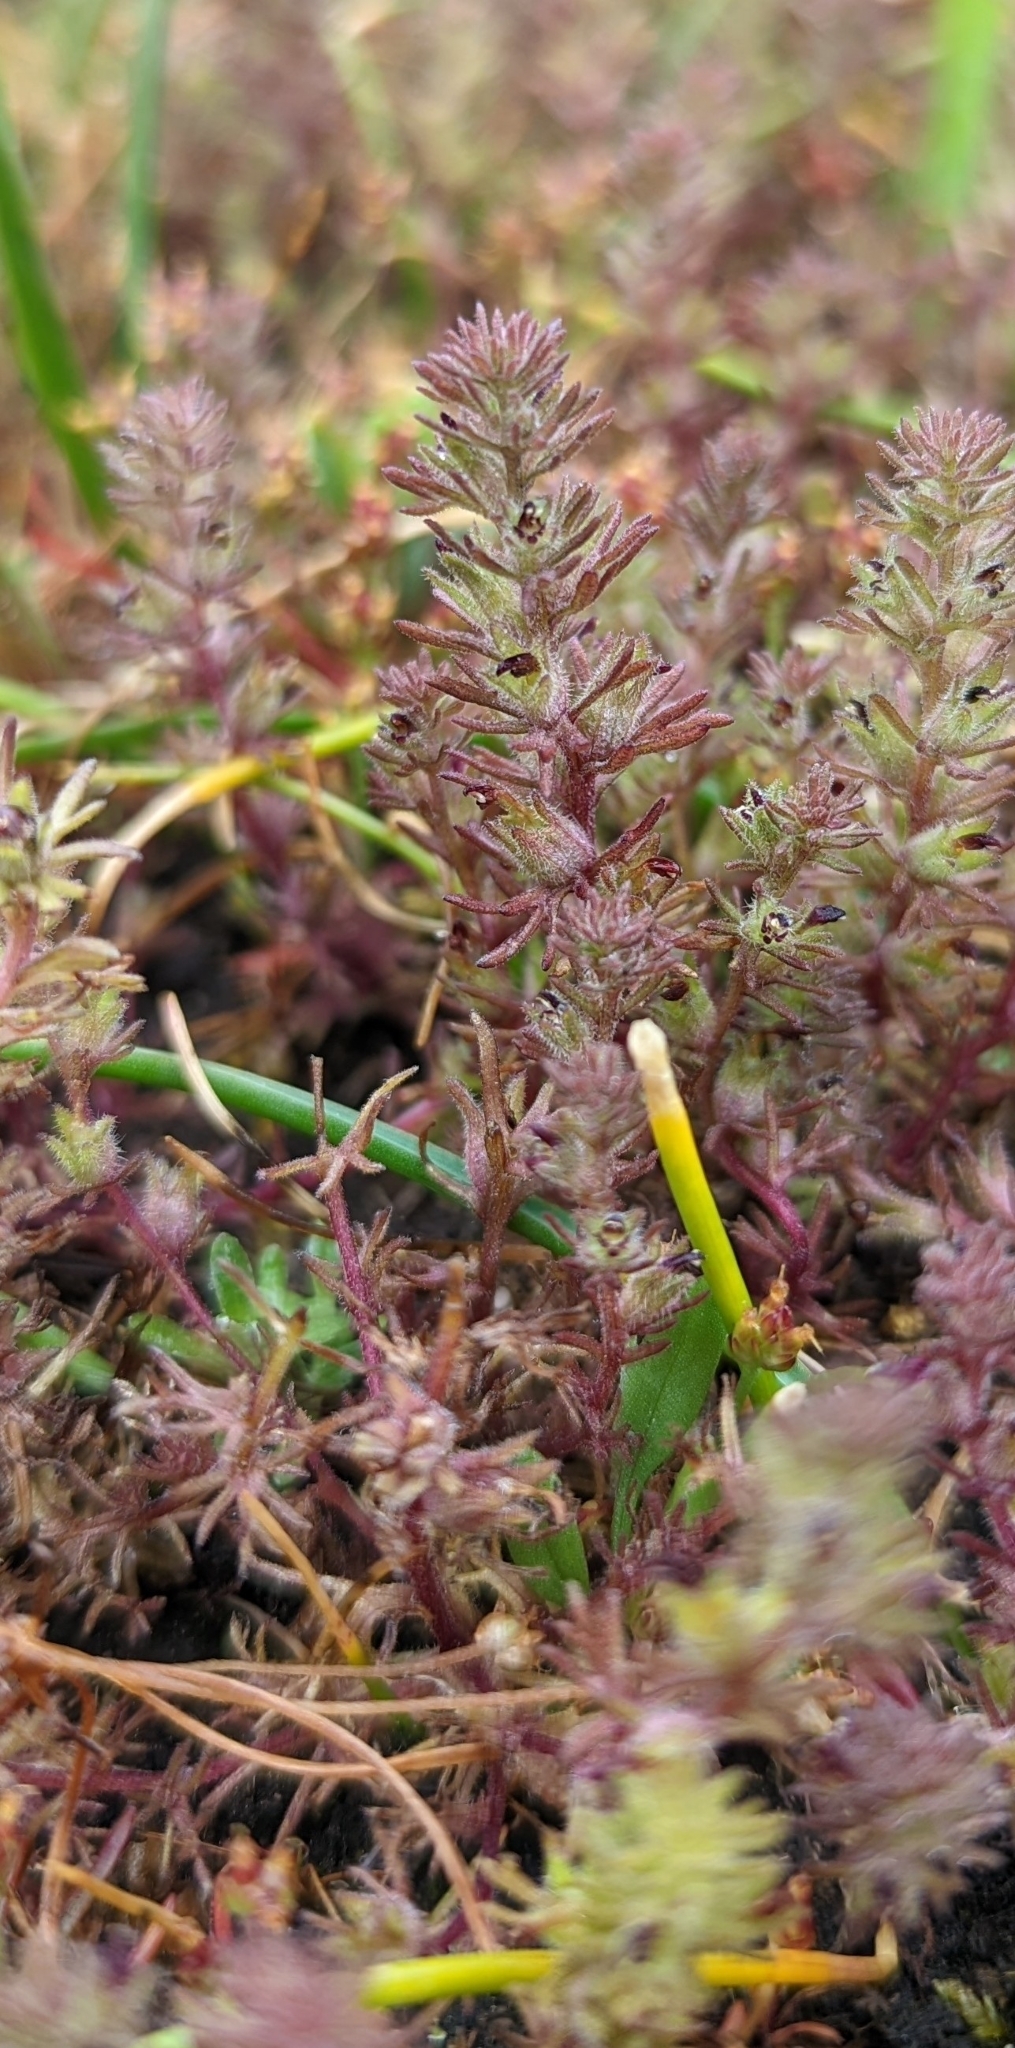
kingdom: Plantae
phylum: Tracheophyta
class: Magnoliopsida
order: Lamiales
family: Orobanchaceae
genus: Triphysaria
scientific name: Triphysaria pusilla
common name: Dwarf false owl-clover
